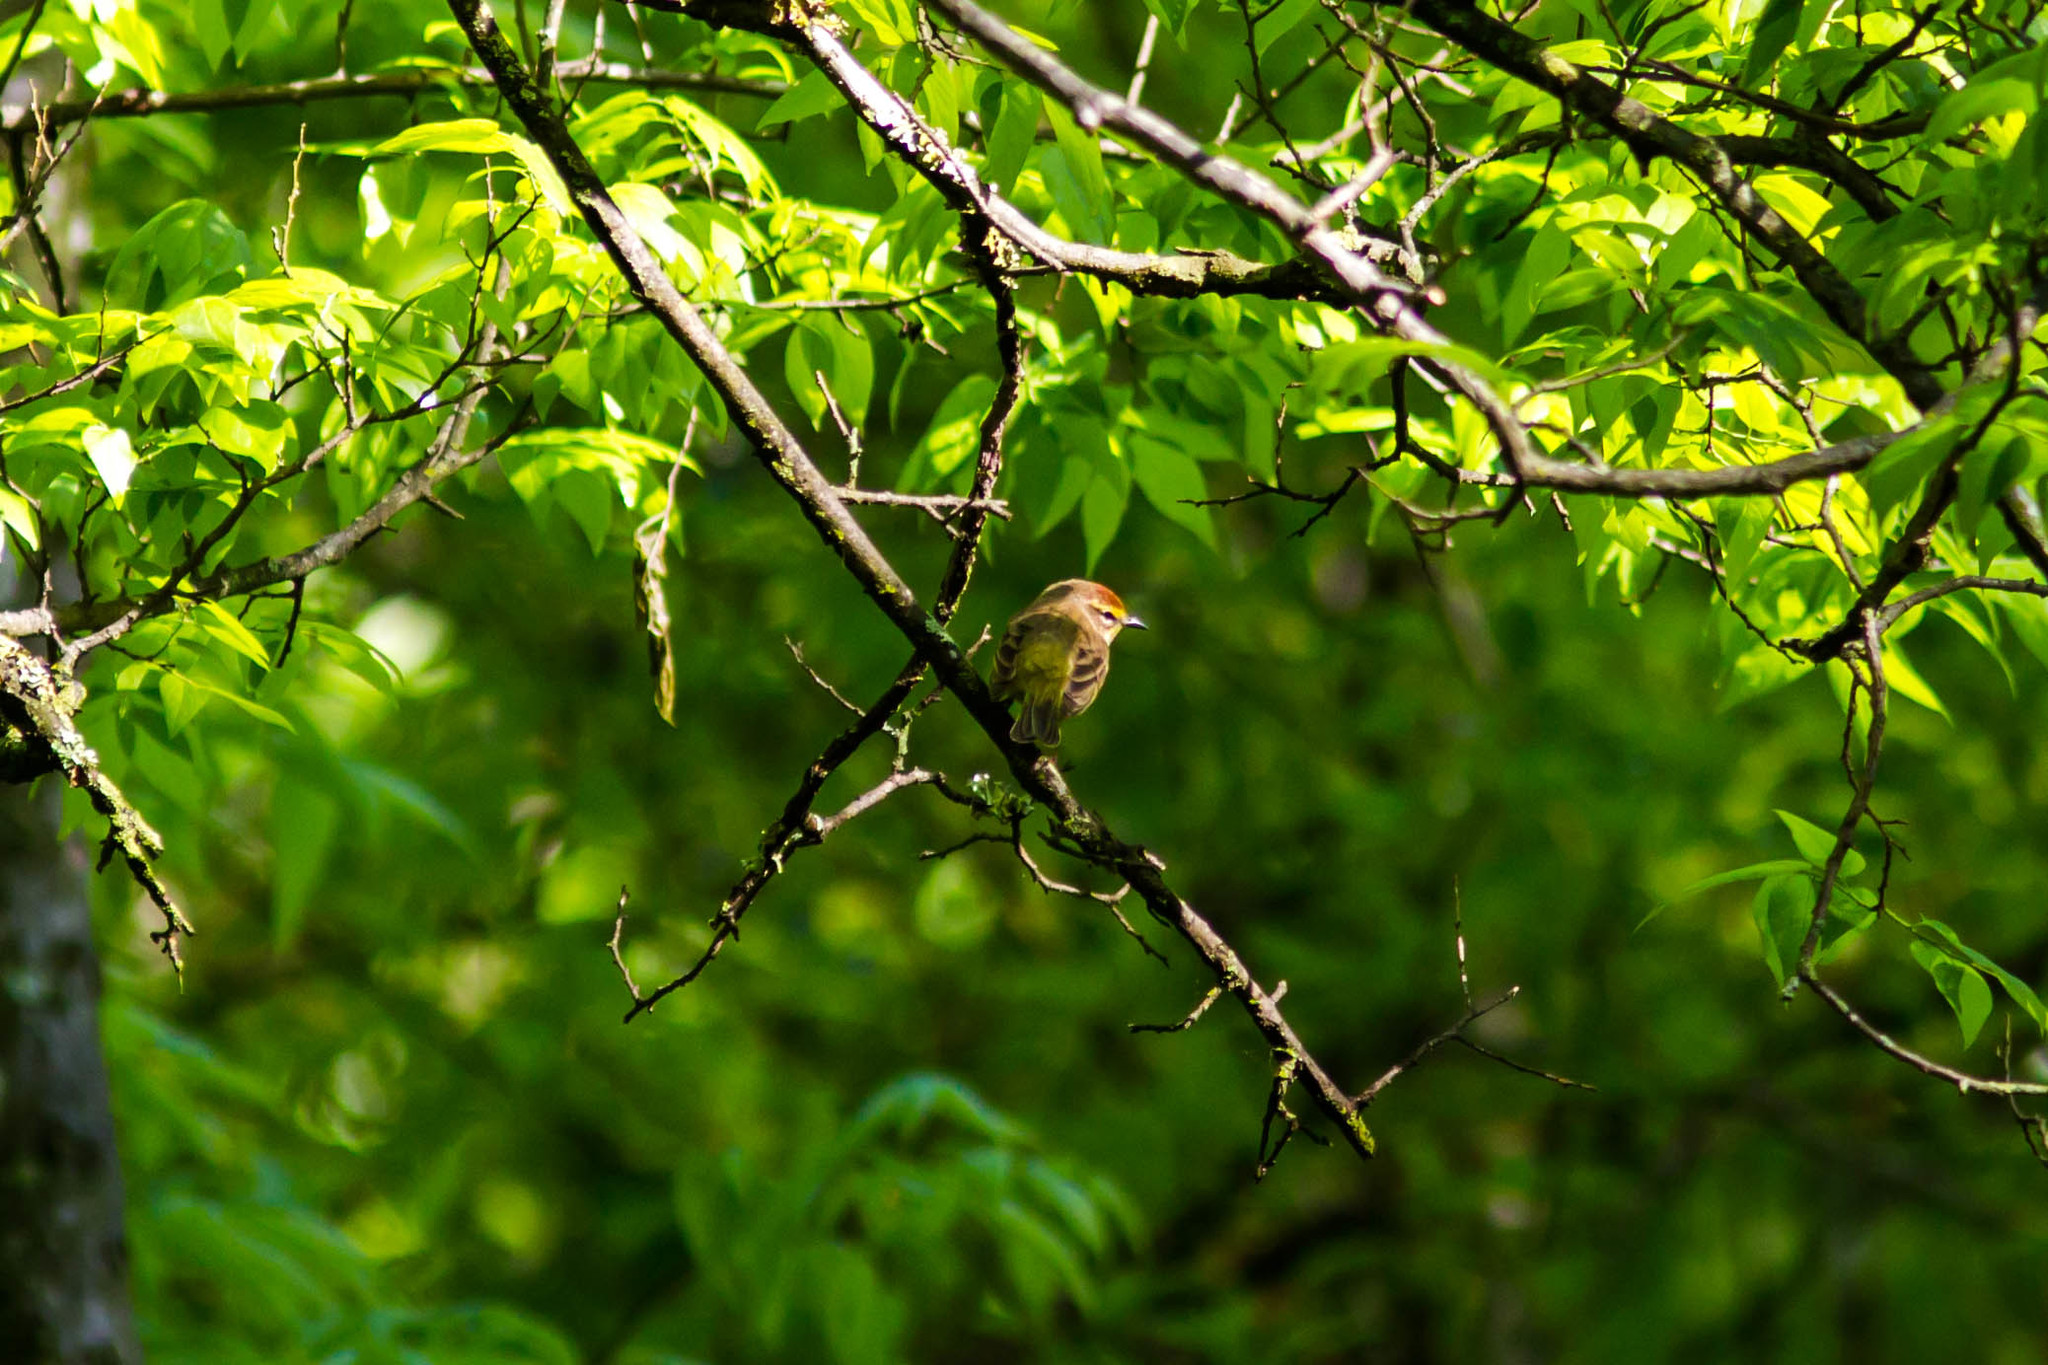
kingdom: Animalia
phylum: Chordata
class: Aves
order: Passeriformes
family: Parulidae
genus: Setophaga
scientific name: Setophaga palmarum
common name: Palm warbler
